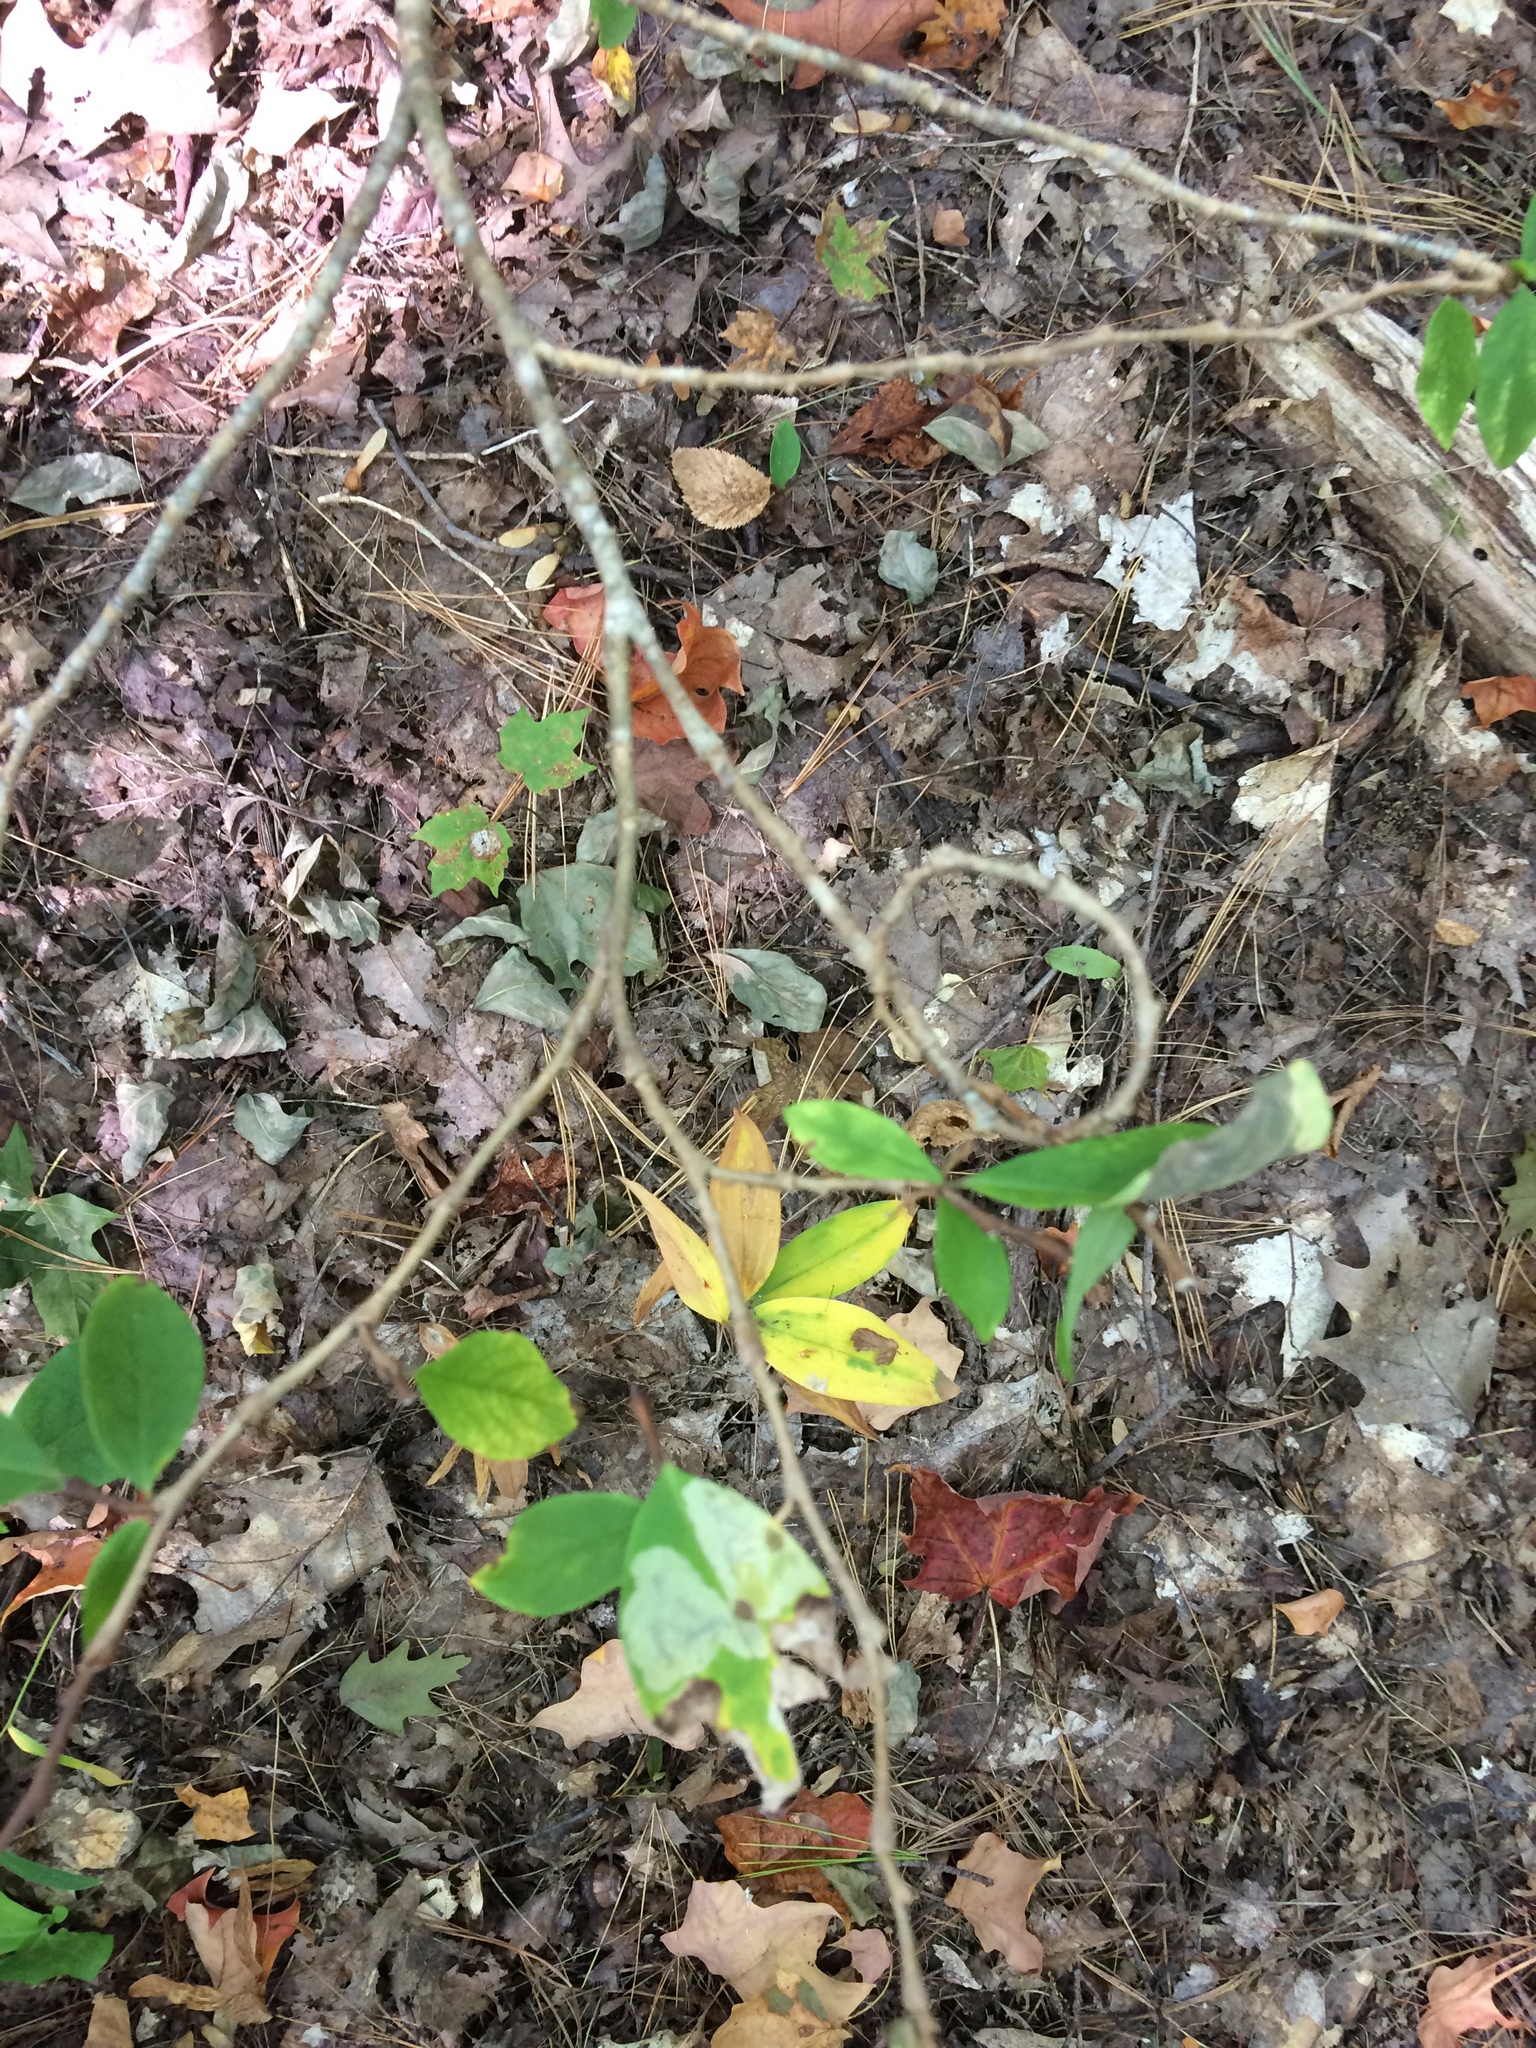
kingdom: Plantae
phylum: Tracheophyta
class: Magnoliopsida
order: Malvales
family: Thymelaeaceae
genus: Dirca
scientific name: Dirca palustris
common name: Leatherwood
